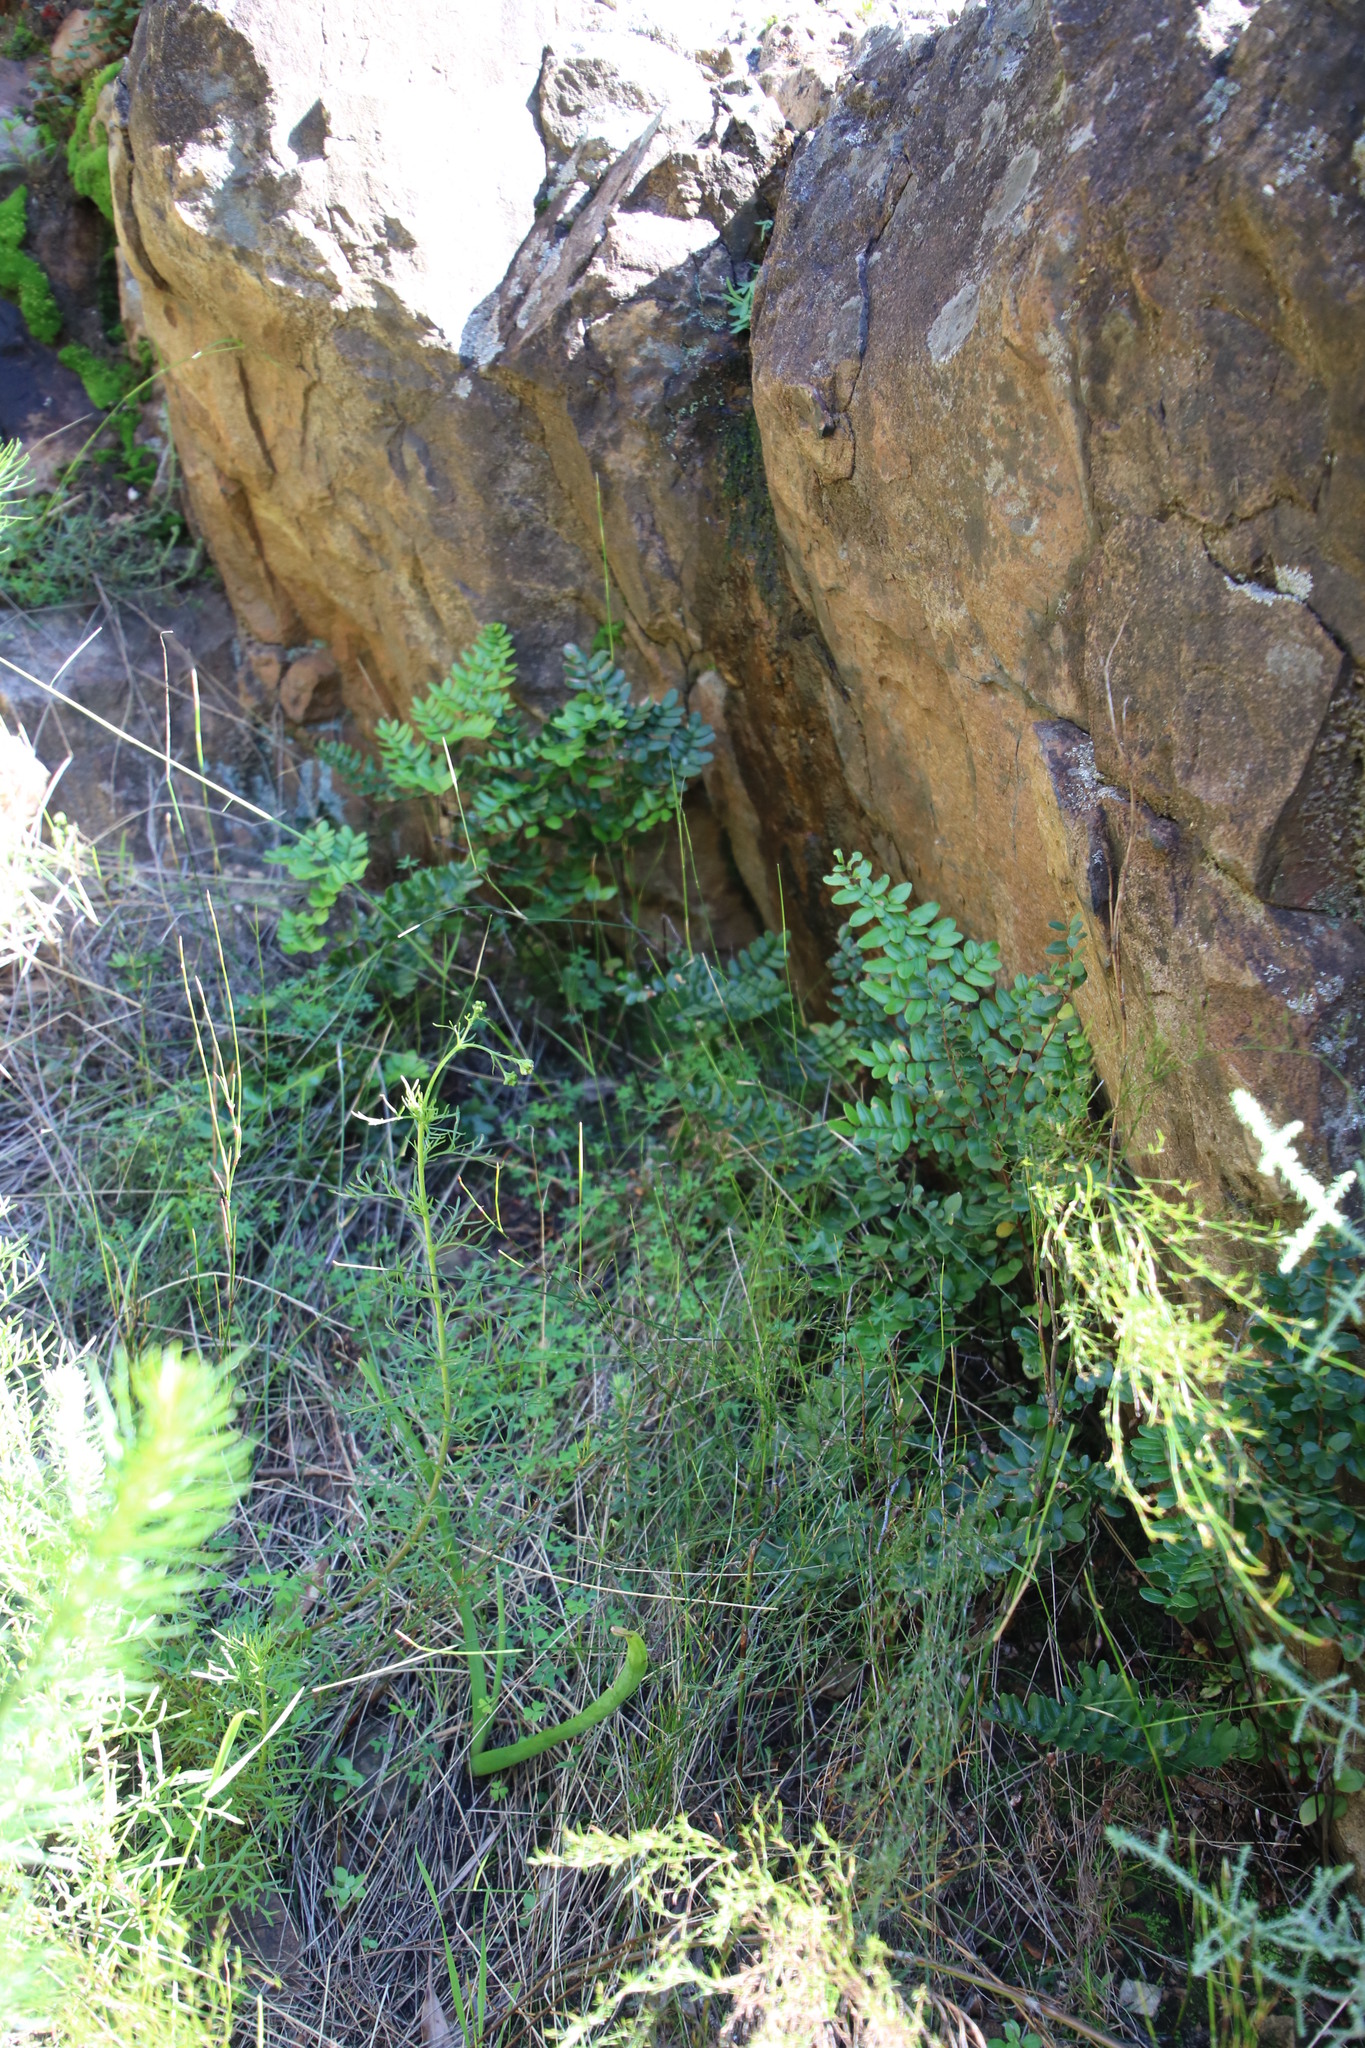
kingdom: Plantae
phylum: Tracheophyta
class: Polypodiopsida
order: Polypodiales
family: Pteridaceae
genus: Pellaea
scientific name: Pellaea pteroides
